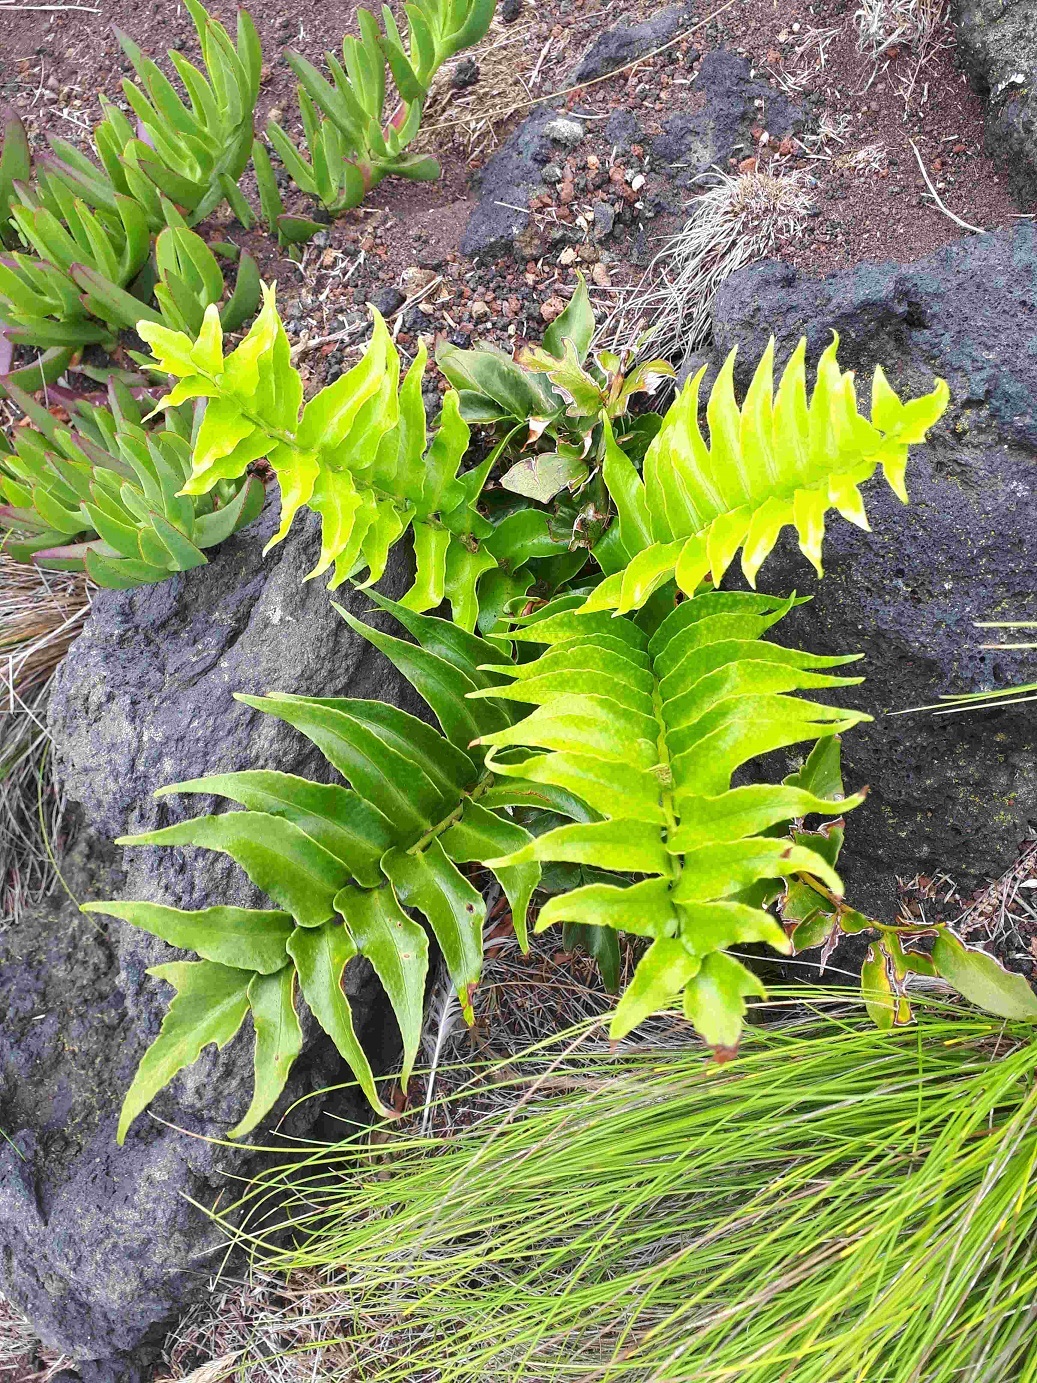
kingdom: Plantae
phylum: Tracheophyta
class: Polypodiopsida
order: Polypodiales
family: Dryopteridaceae
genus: Cyrtomium
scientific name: Cyrtomium falcatum
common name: House holly-fern
